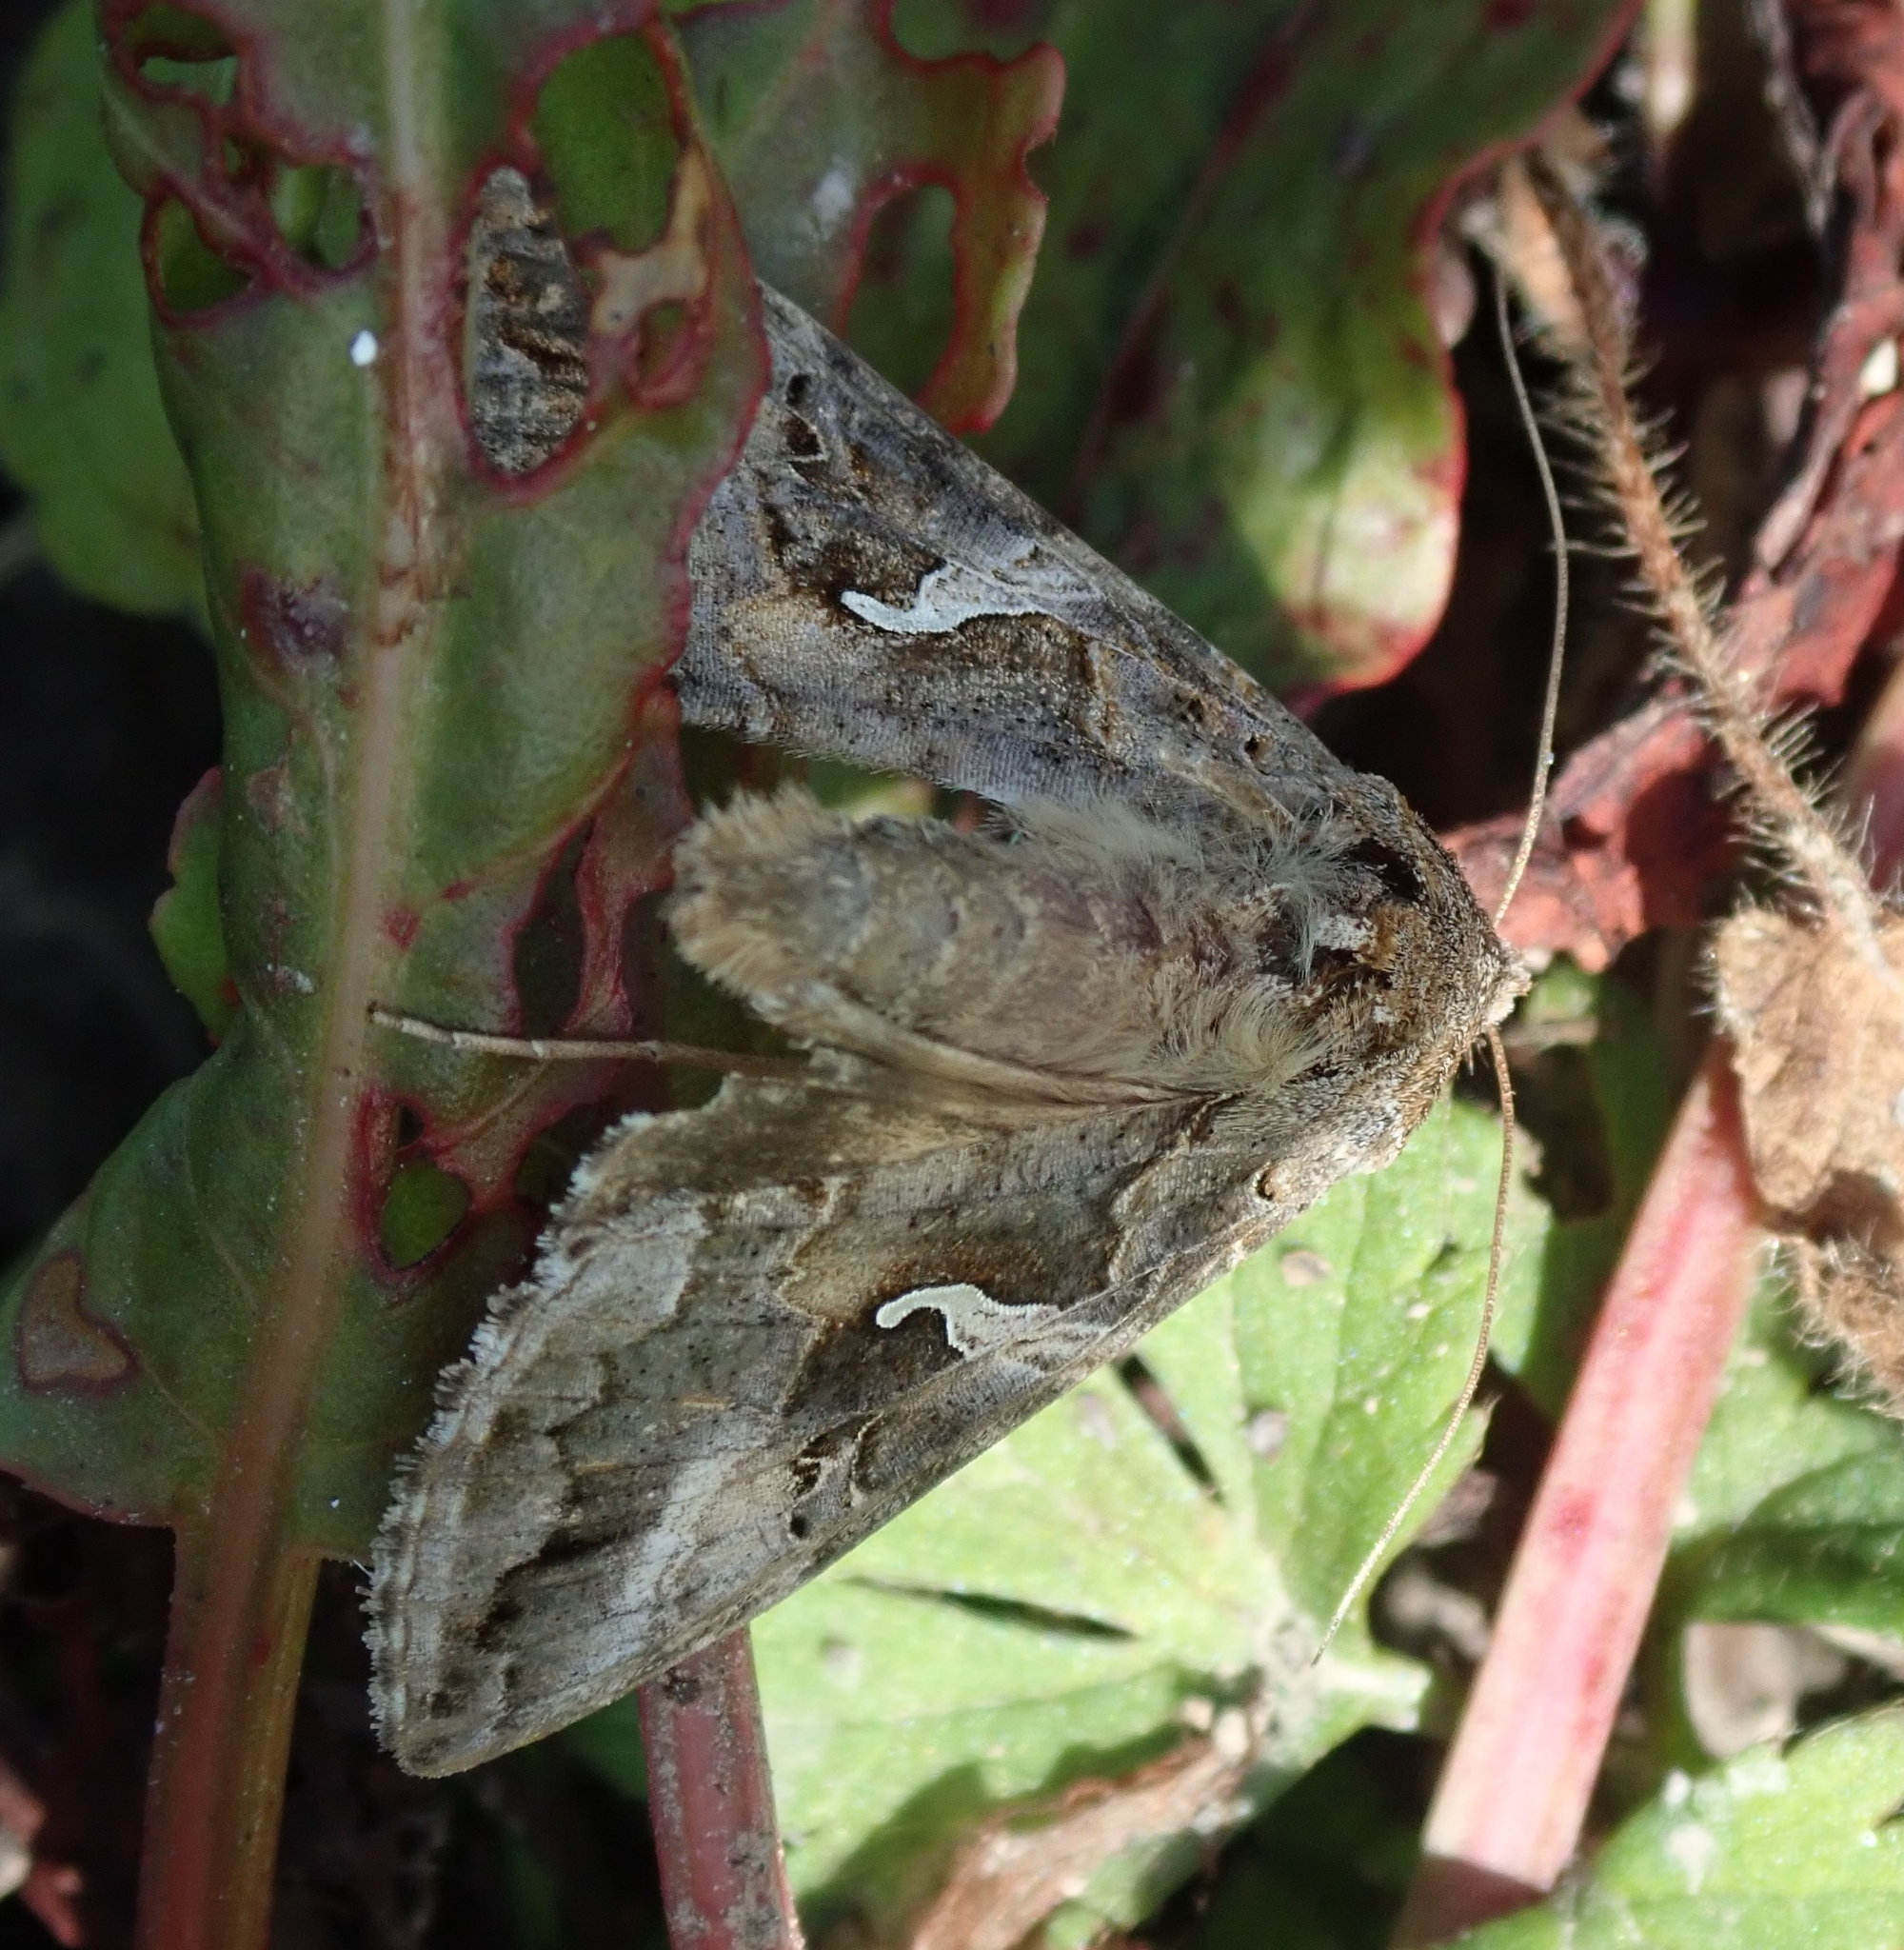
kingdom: Animalia
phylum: Arthropoda
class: Insecta
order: Lepidoptera
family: Noctuidae
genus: Autographa
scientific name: Autographa gamma
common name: Silver y
